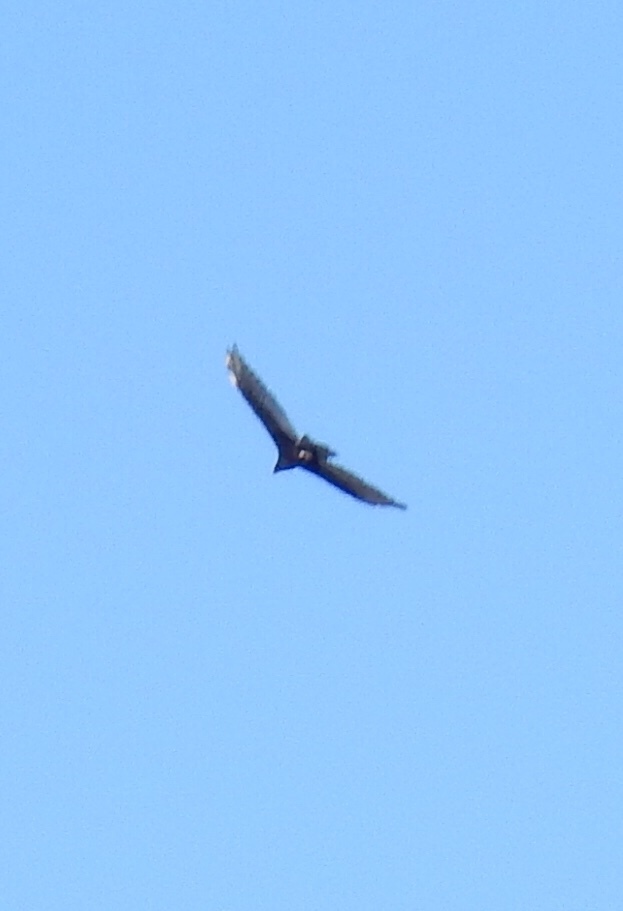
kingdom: Animalia
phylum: Chordata
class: Aves
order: Accipitriformes
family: Cathartidae
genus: Cathartes
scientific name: Cathartes aura
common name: Turkey vulture
